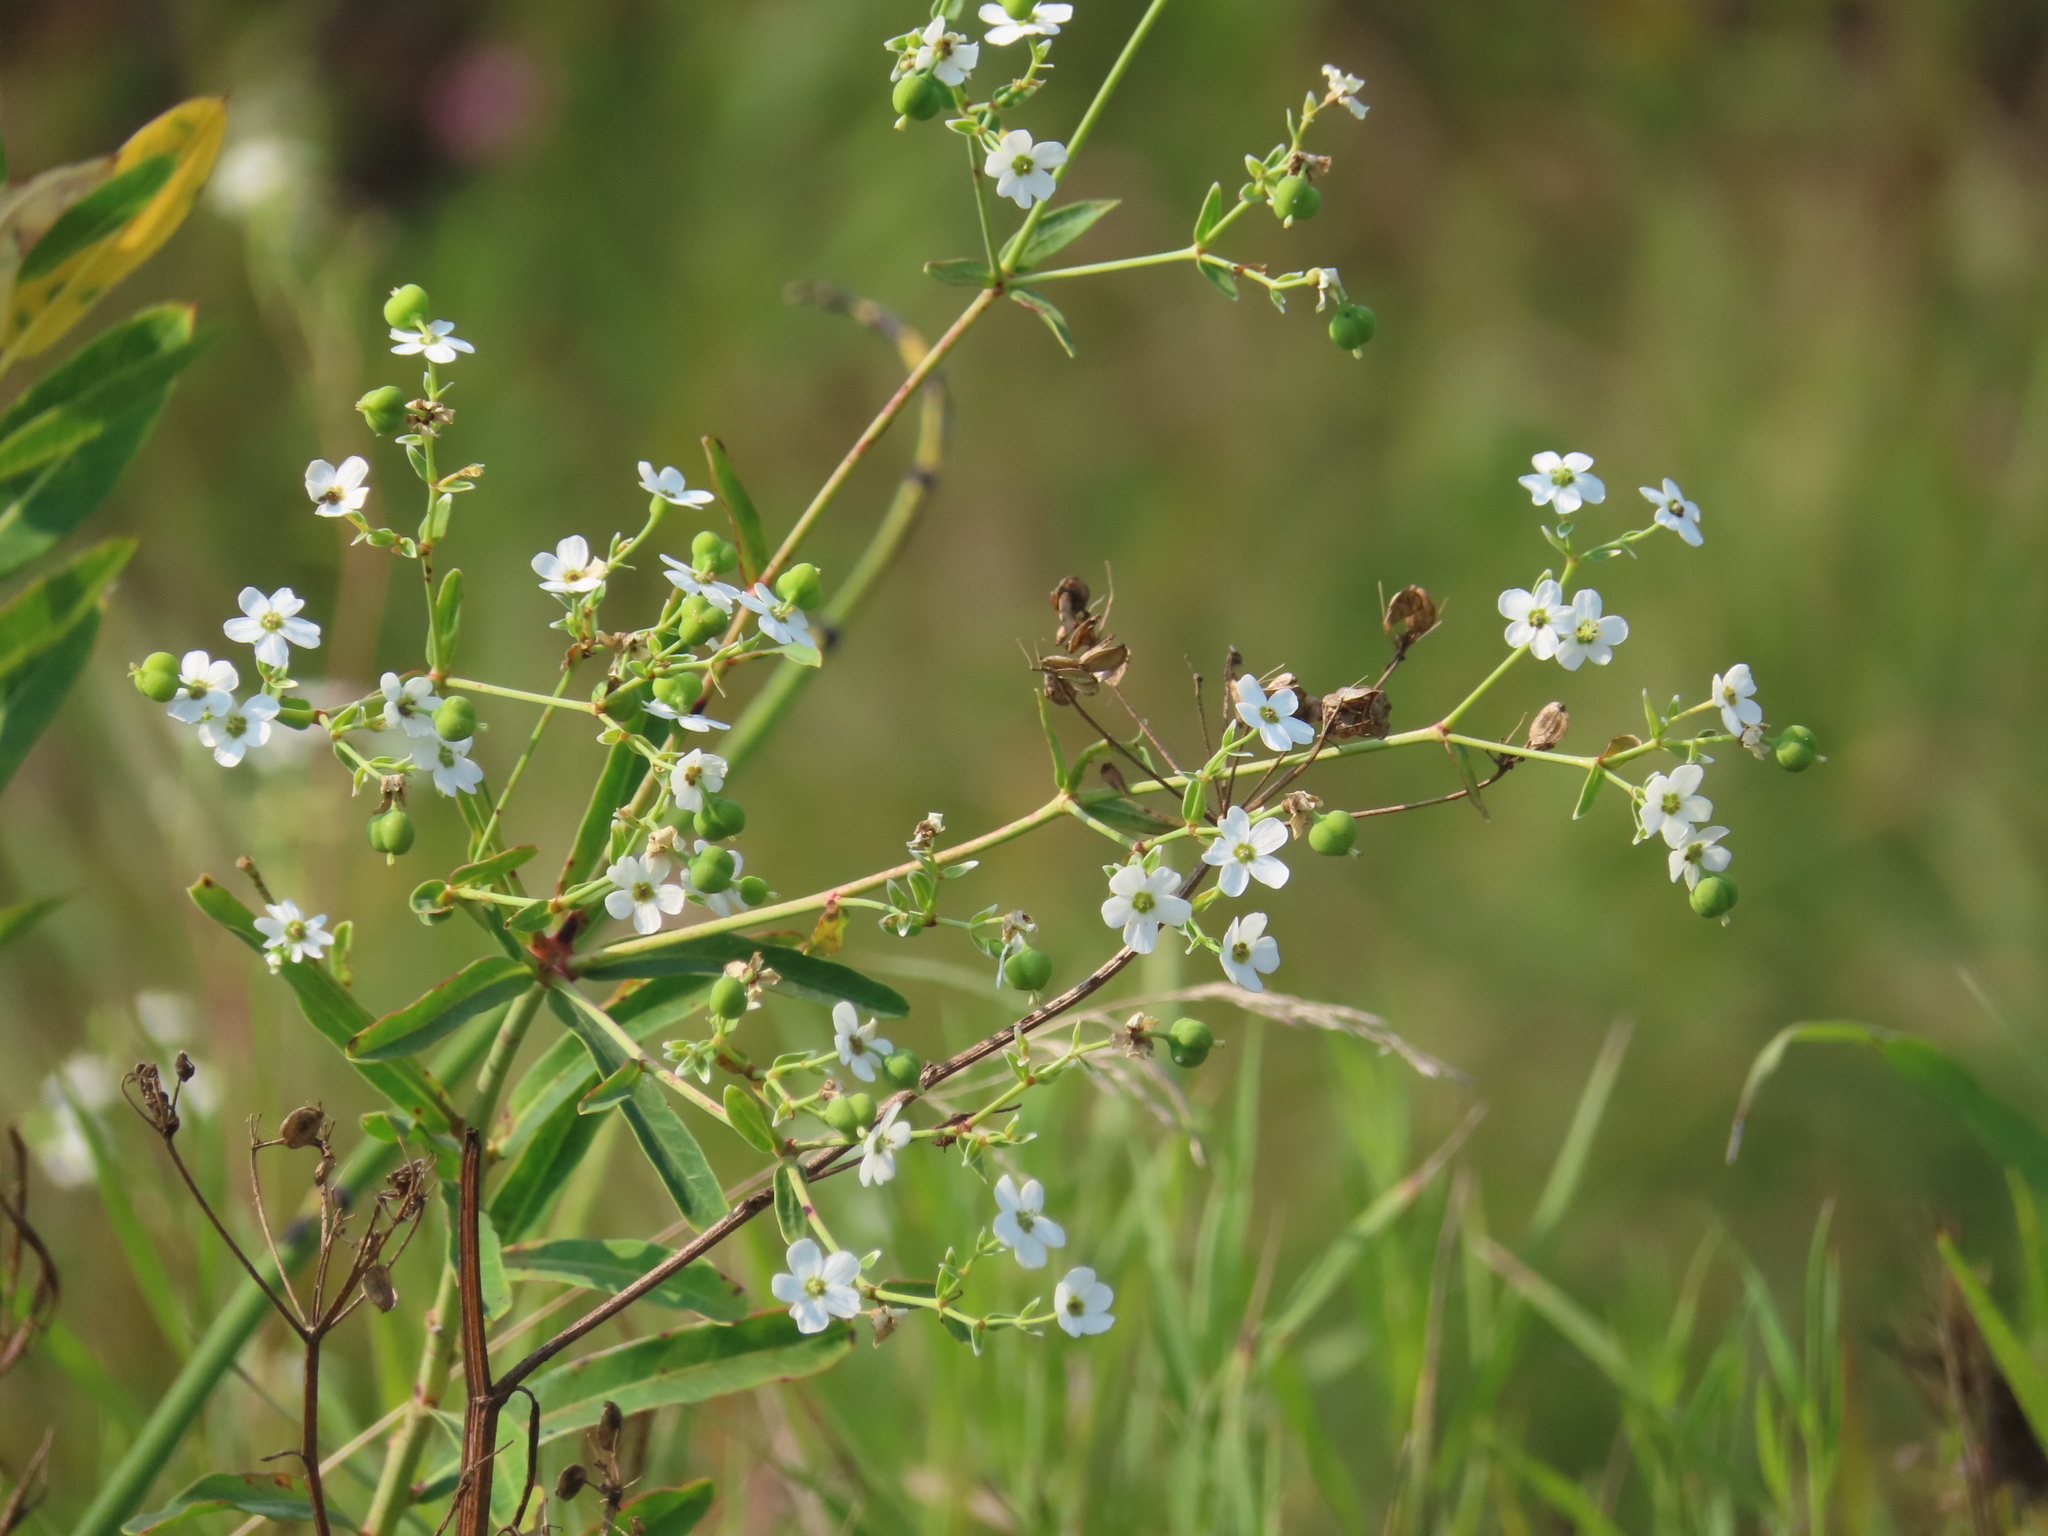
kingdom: Plantae
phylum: Tracheophyta
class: Magnoliopsida
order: Malpighiales
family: Euphorbiaceae
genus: Euphorbia
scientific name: Euphorbia corollata
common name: Flowering spurge
